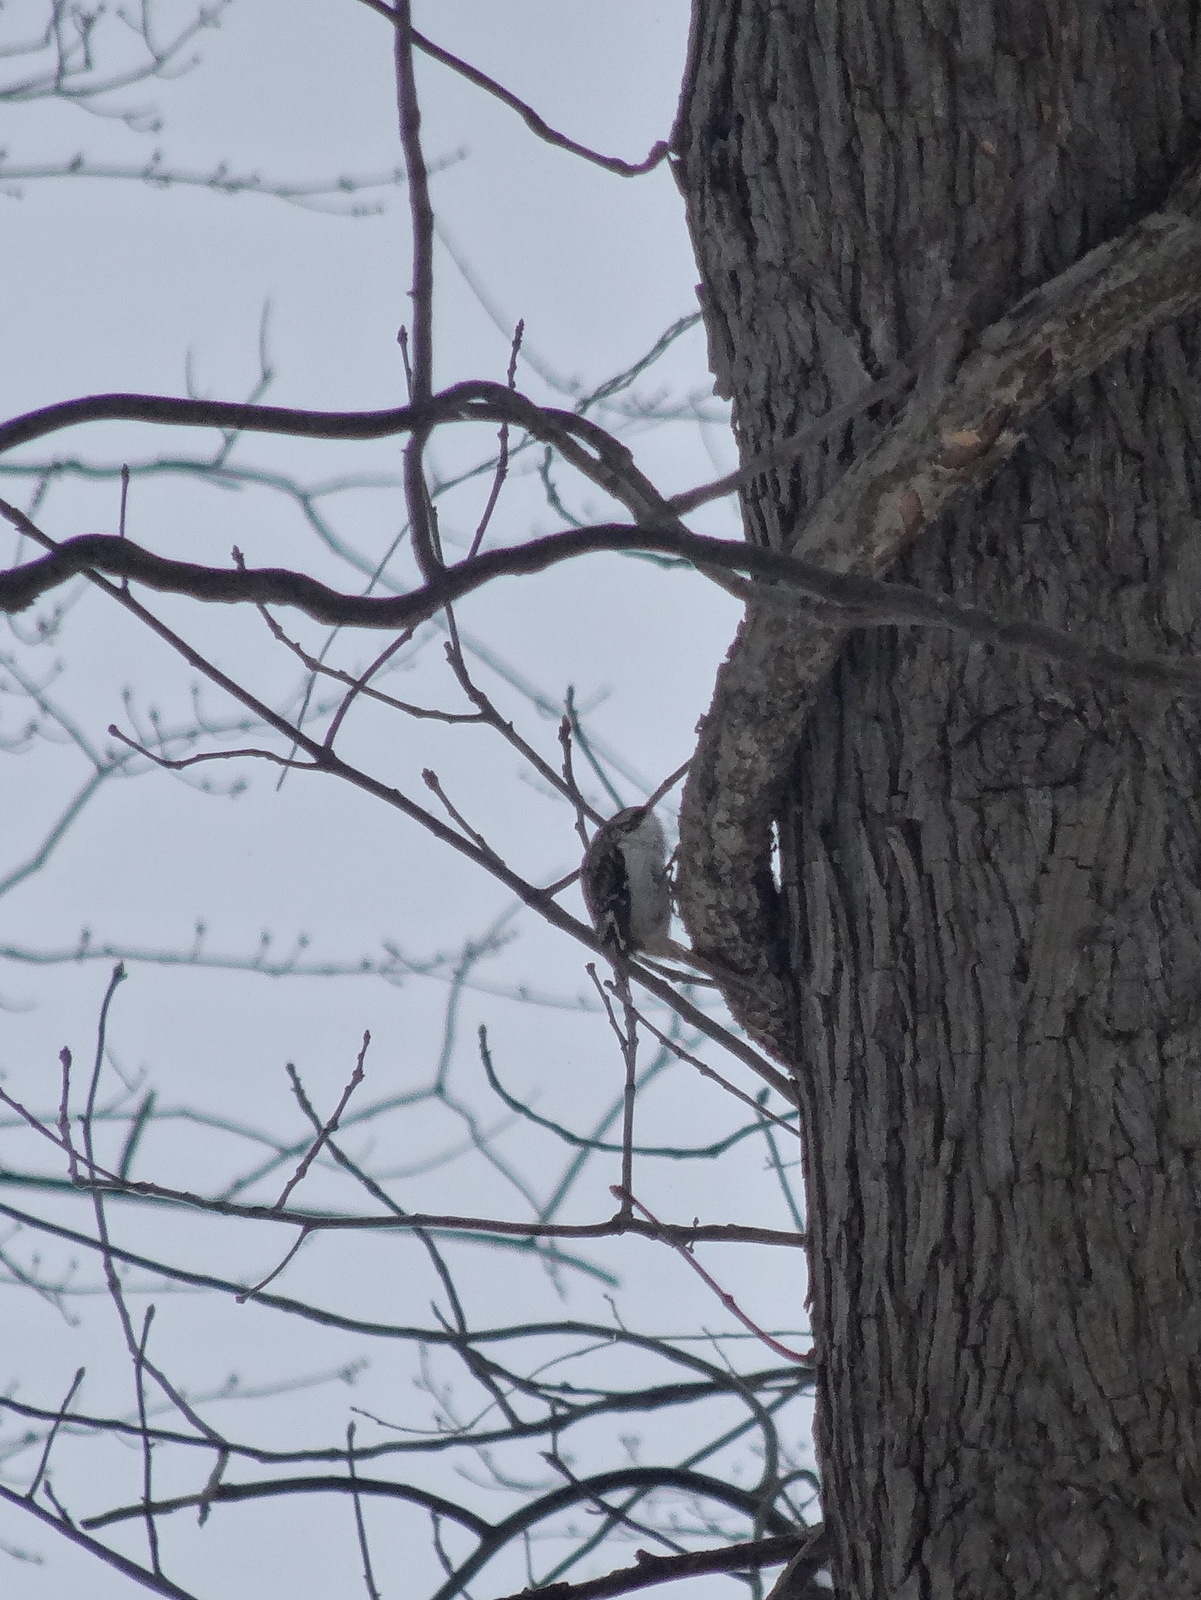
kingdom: Animalia
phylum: Chordata
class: Aves
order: Passeriformes
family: Certhiidae
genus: Certhia
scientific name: Certhia americana
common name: Brown creeper
